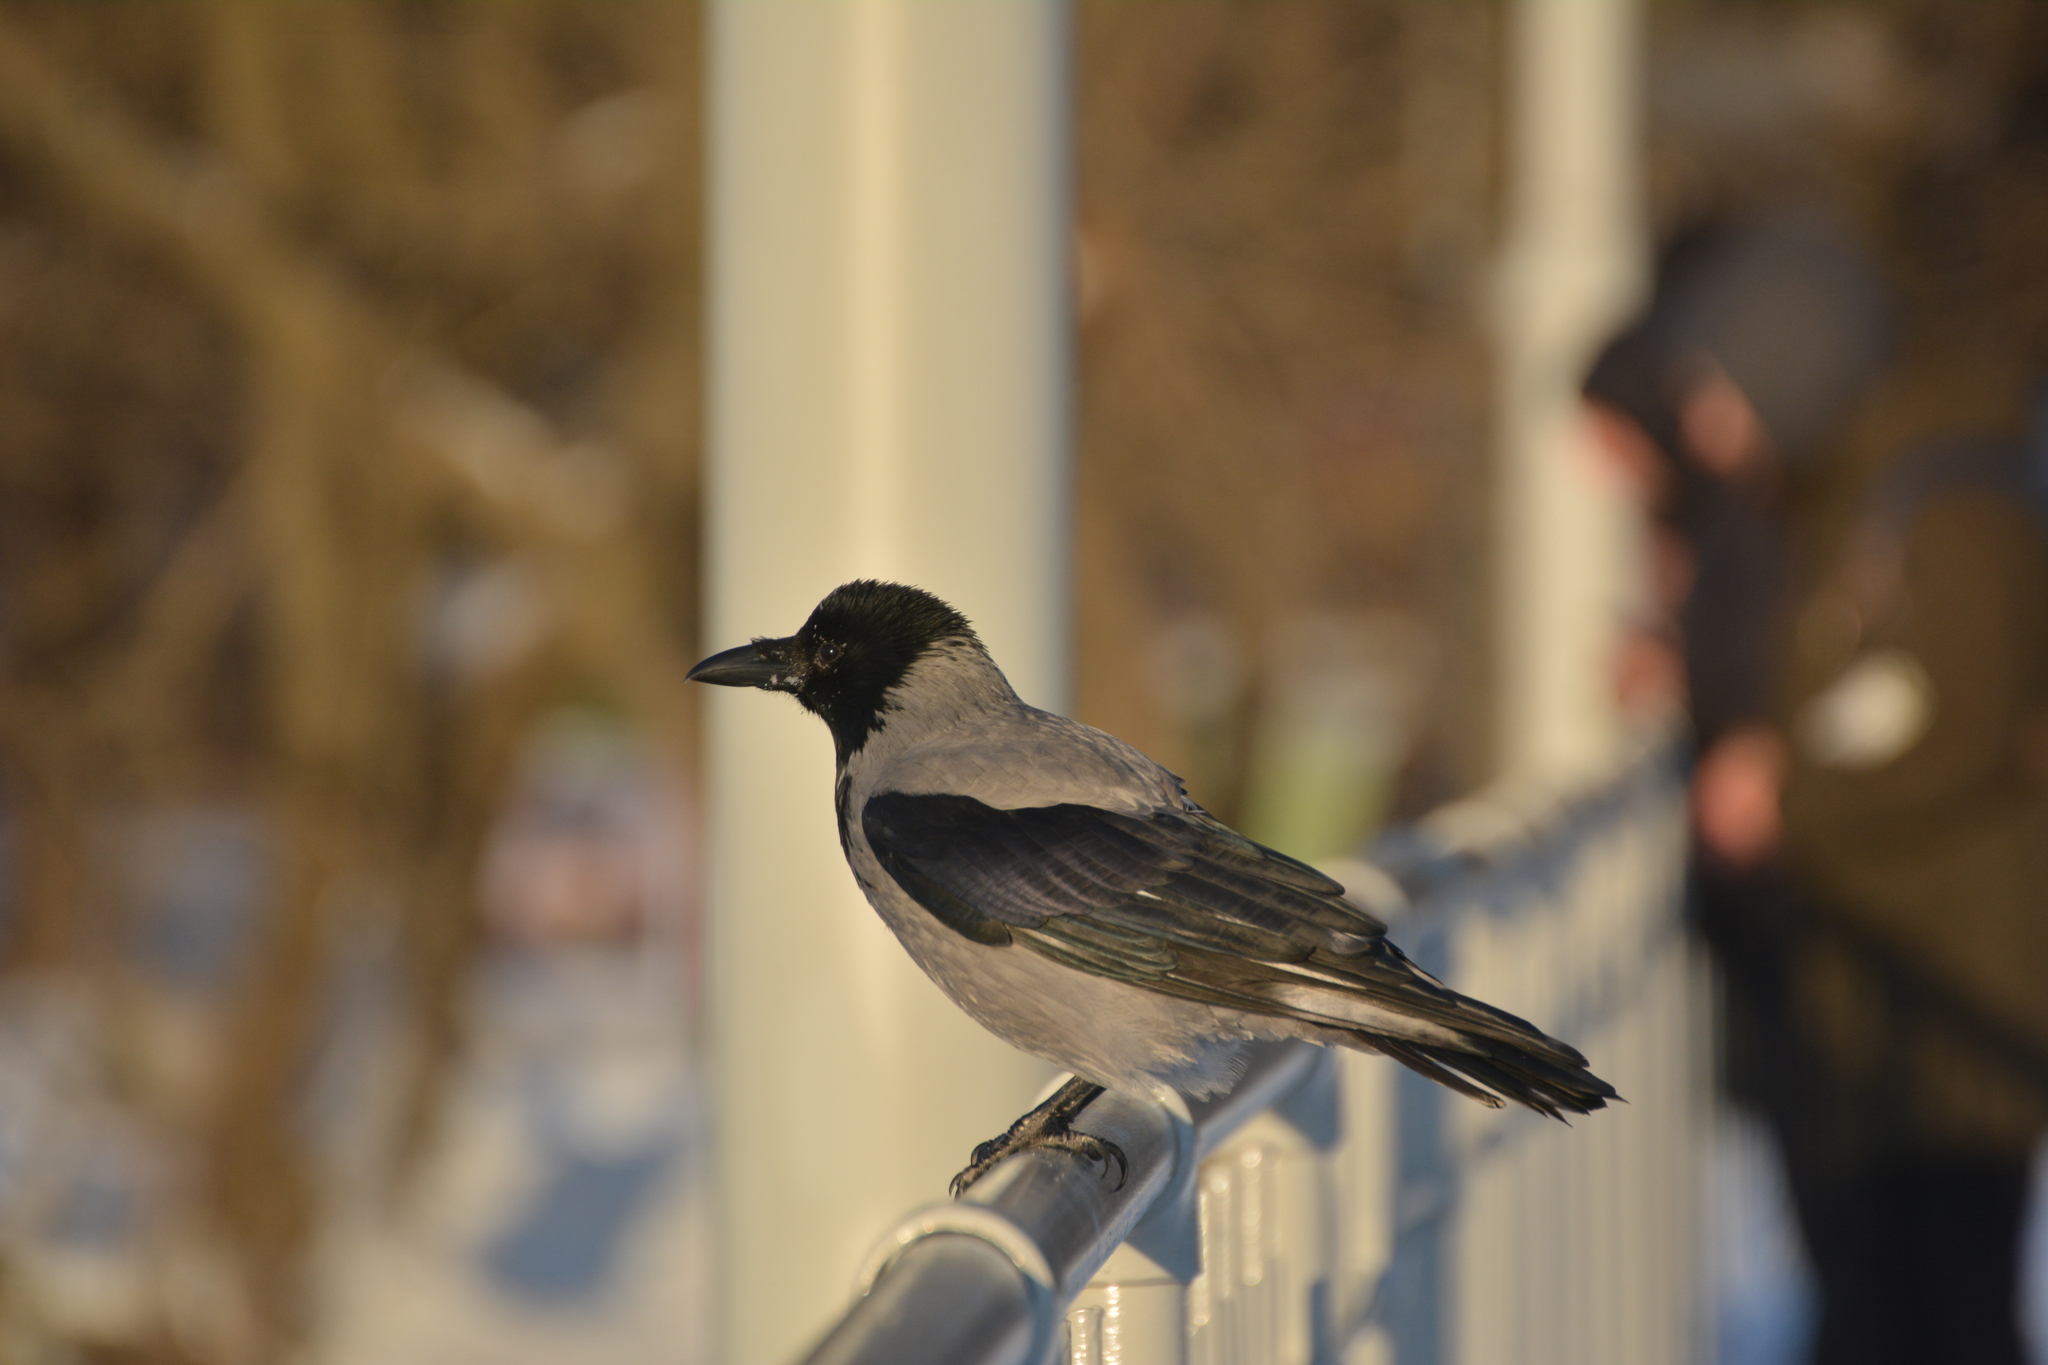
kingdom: Animalia
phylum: Chordata
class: Aves
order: Passeriformes
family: Corvidae
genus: Corvus
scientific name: Corvus cornix
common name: Hooded crow
